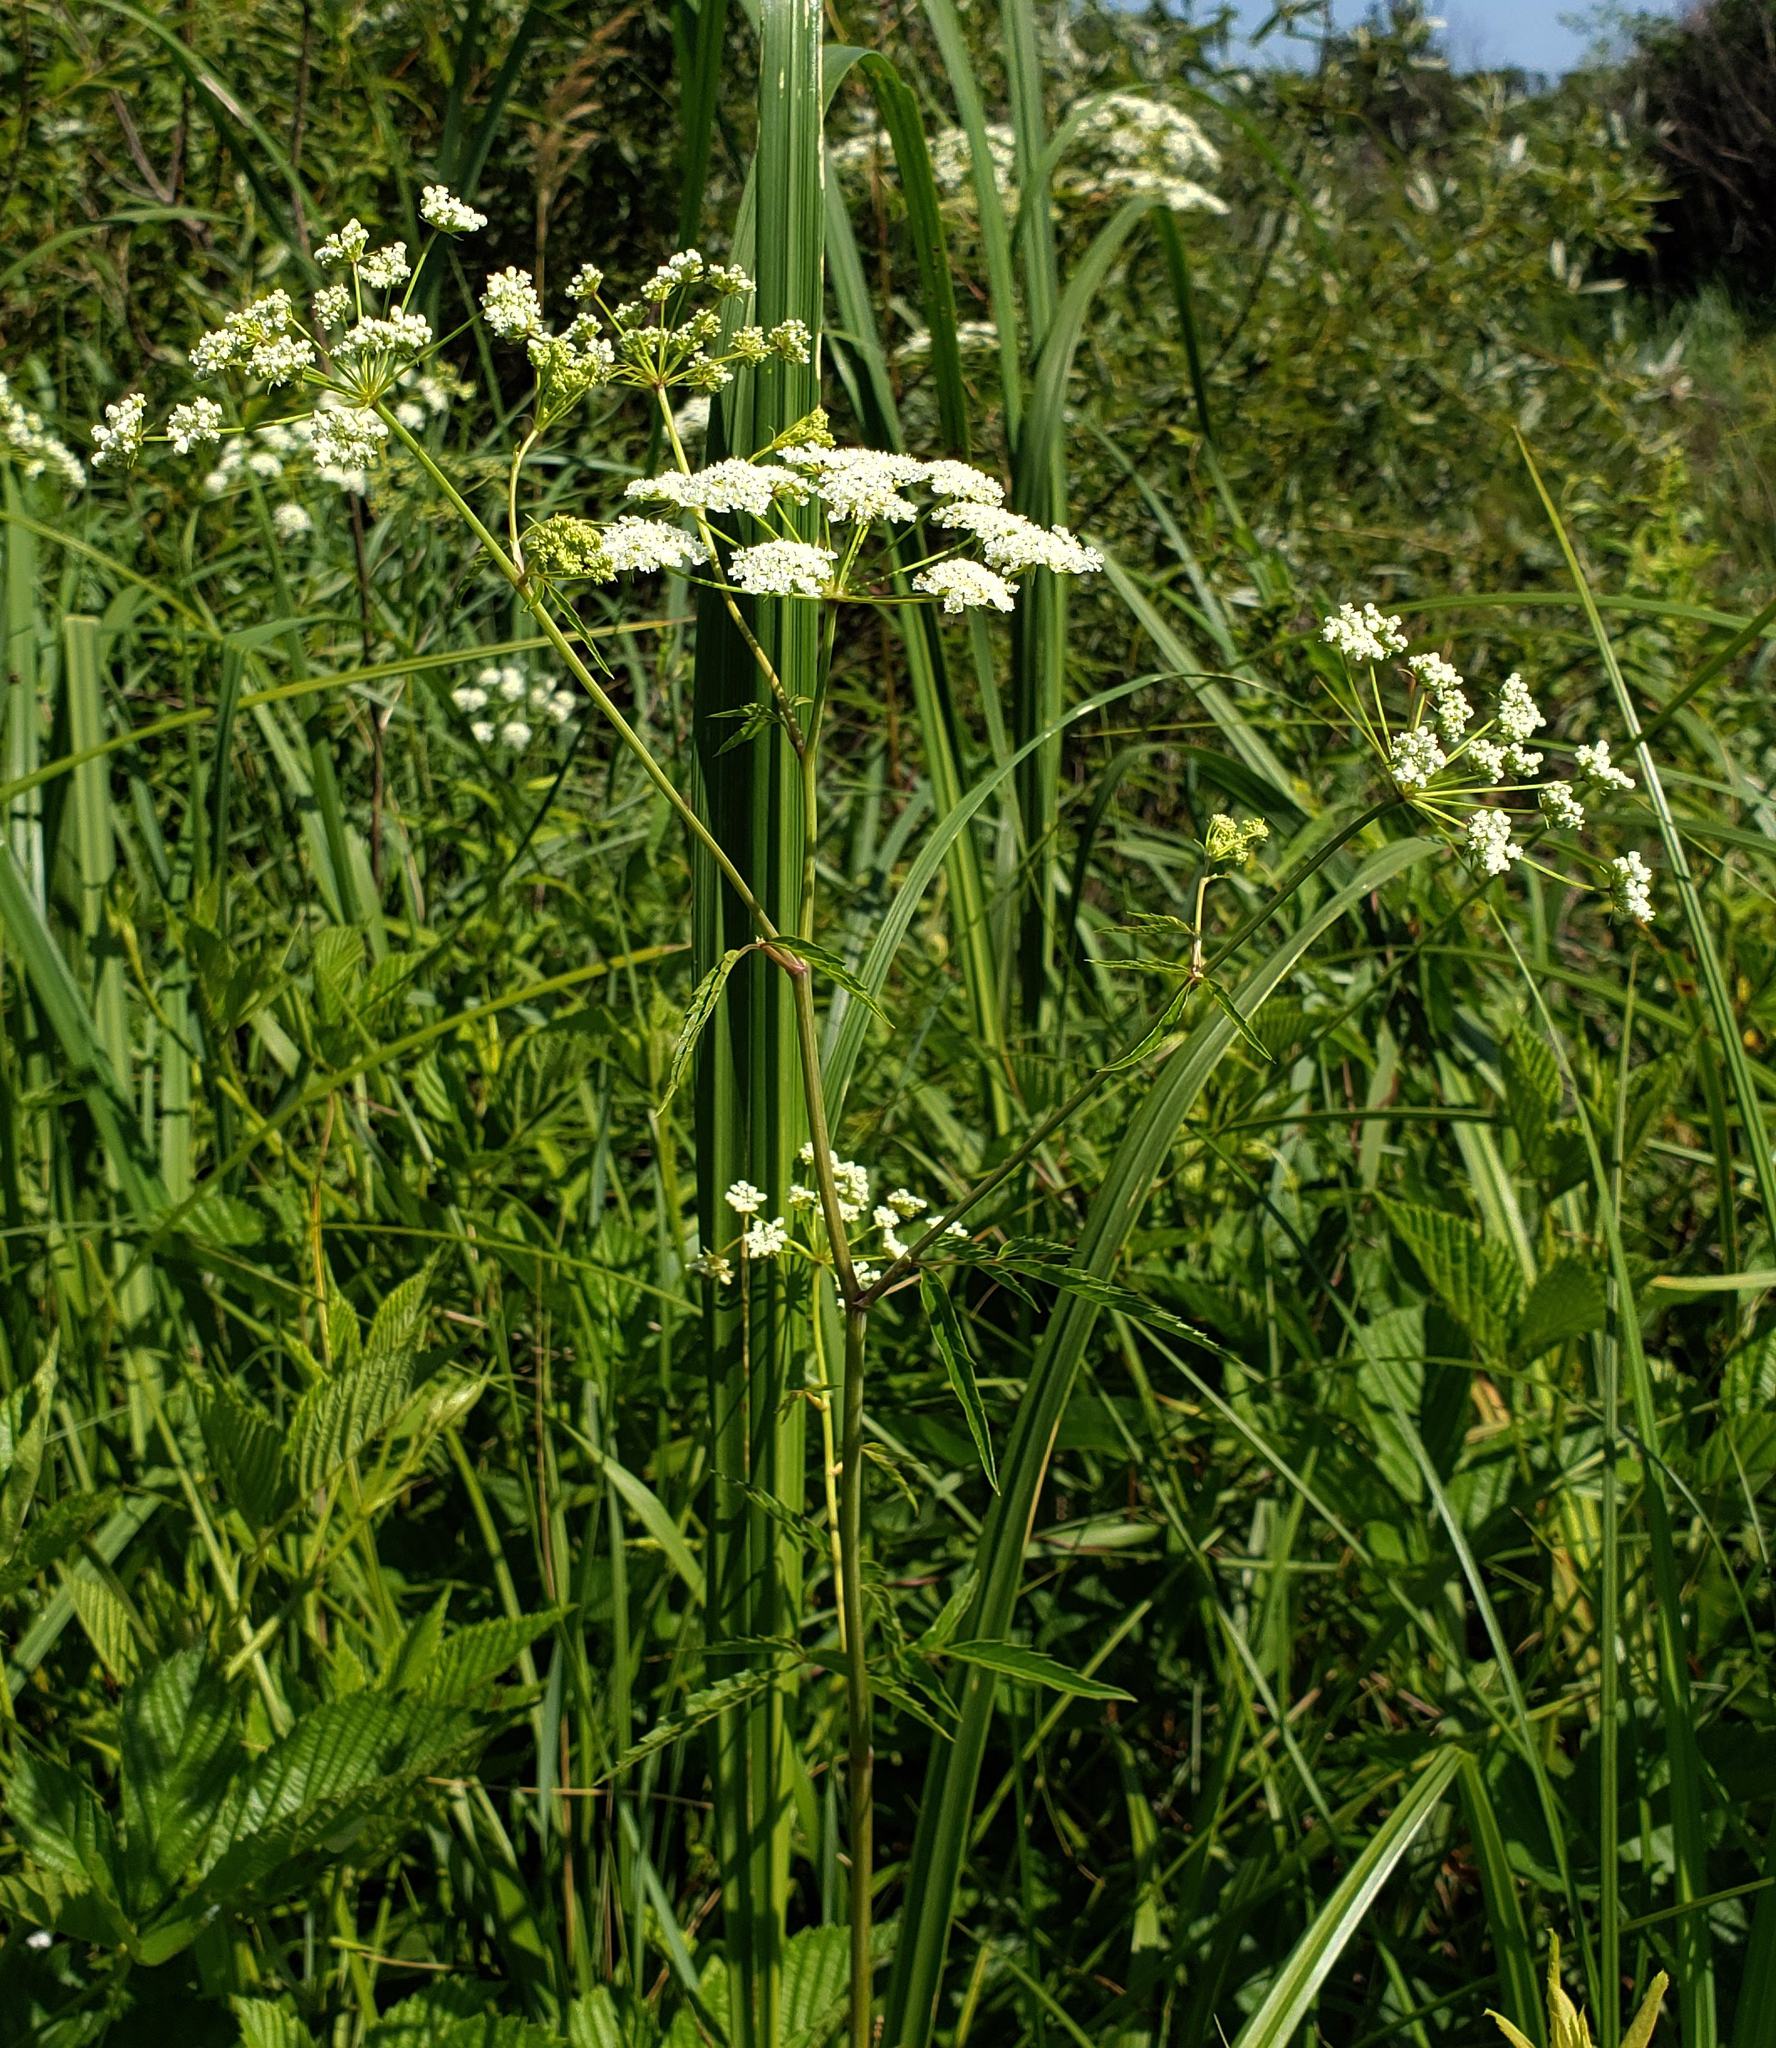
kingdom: Plantae
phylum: Tracheophyta
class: Magnoliopsida
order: Apiales
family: Apiaceae
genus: Cicuta
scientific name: Cicuta maculata
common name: Spotted cowbane
